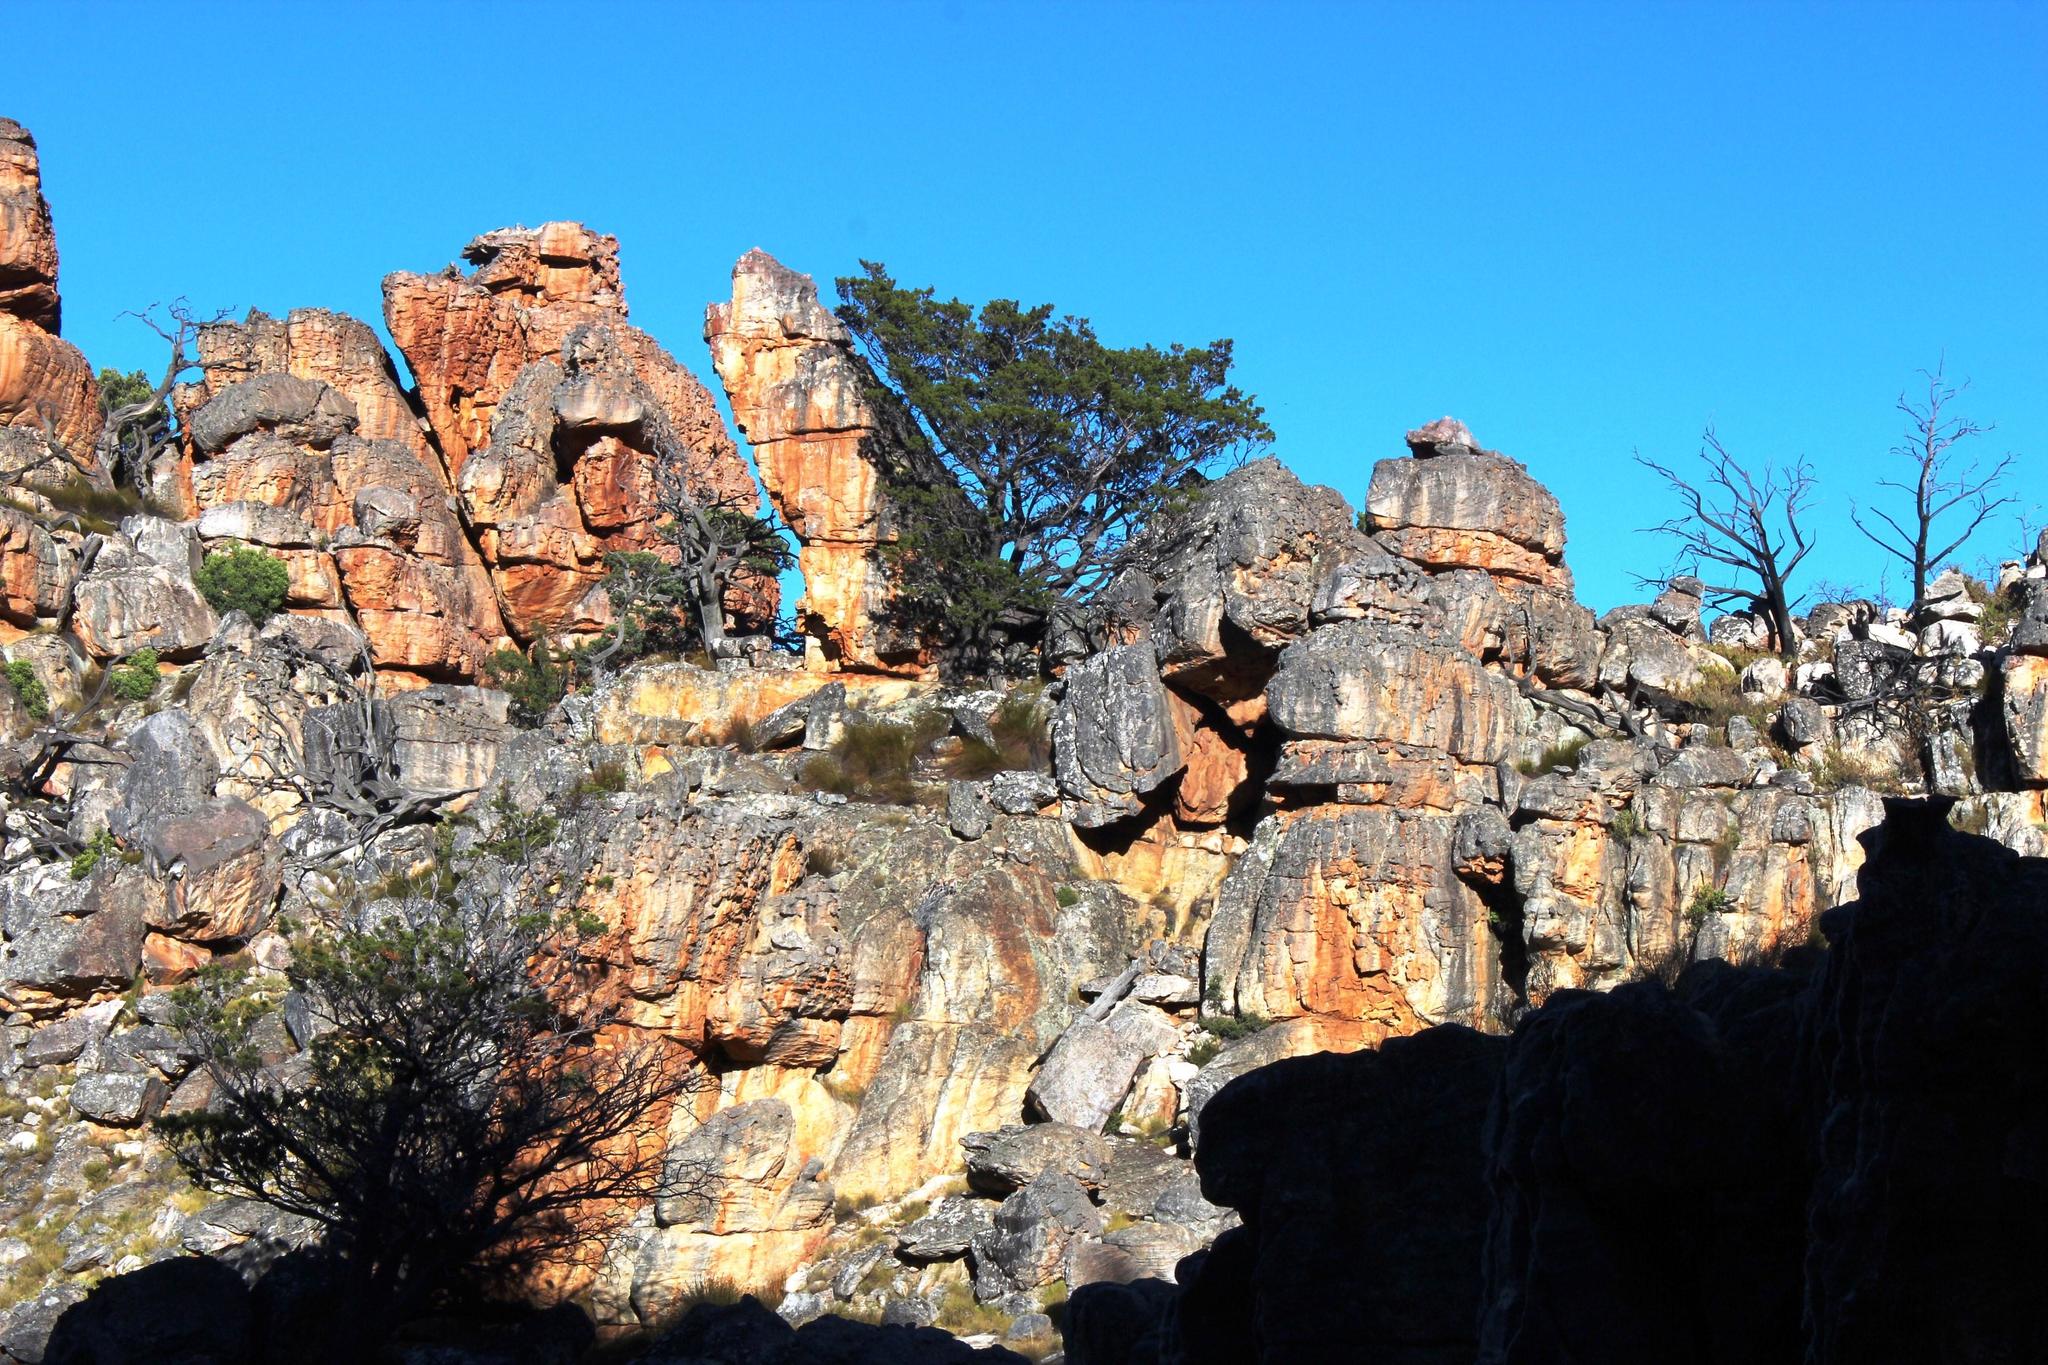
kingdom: Plantae
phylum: Tracheophyta
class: Pinopsida
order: Pinales
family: Cupressaceae
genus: Widdringtonia
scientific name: Widdringtonia nodiflora
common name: Cape cypress
